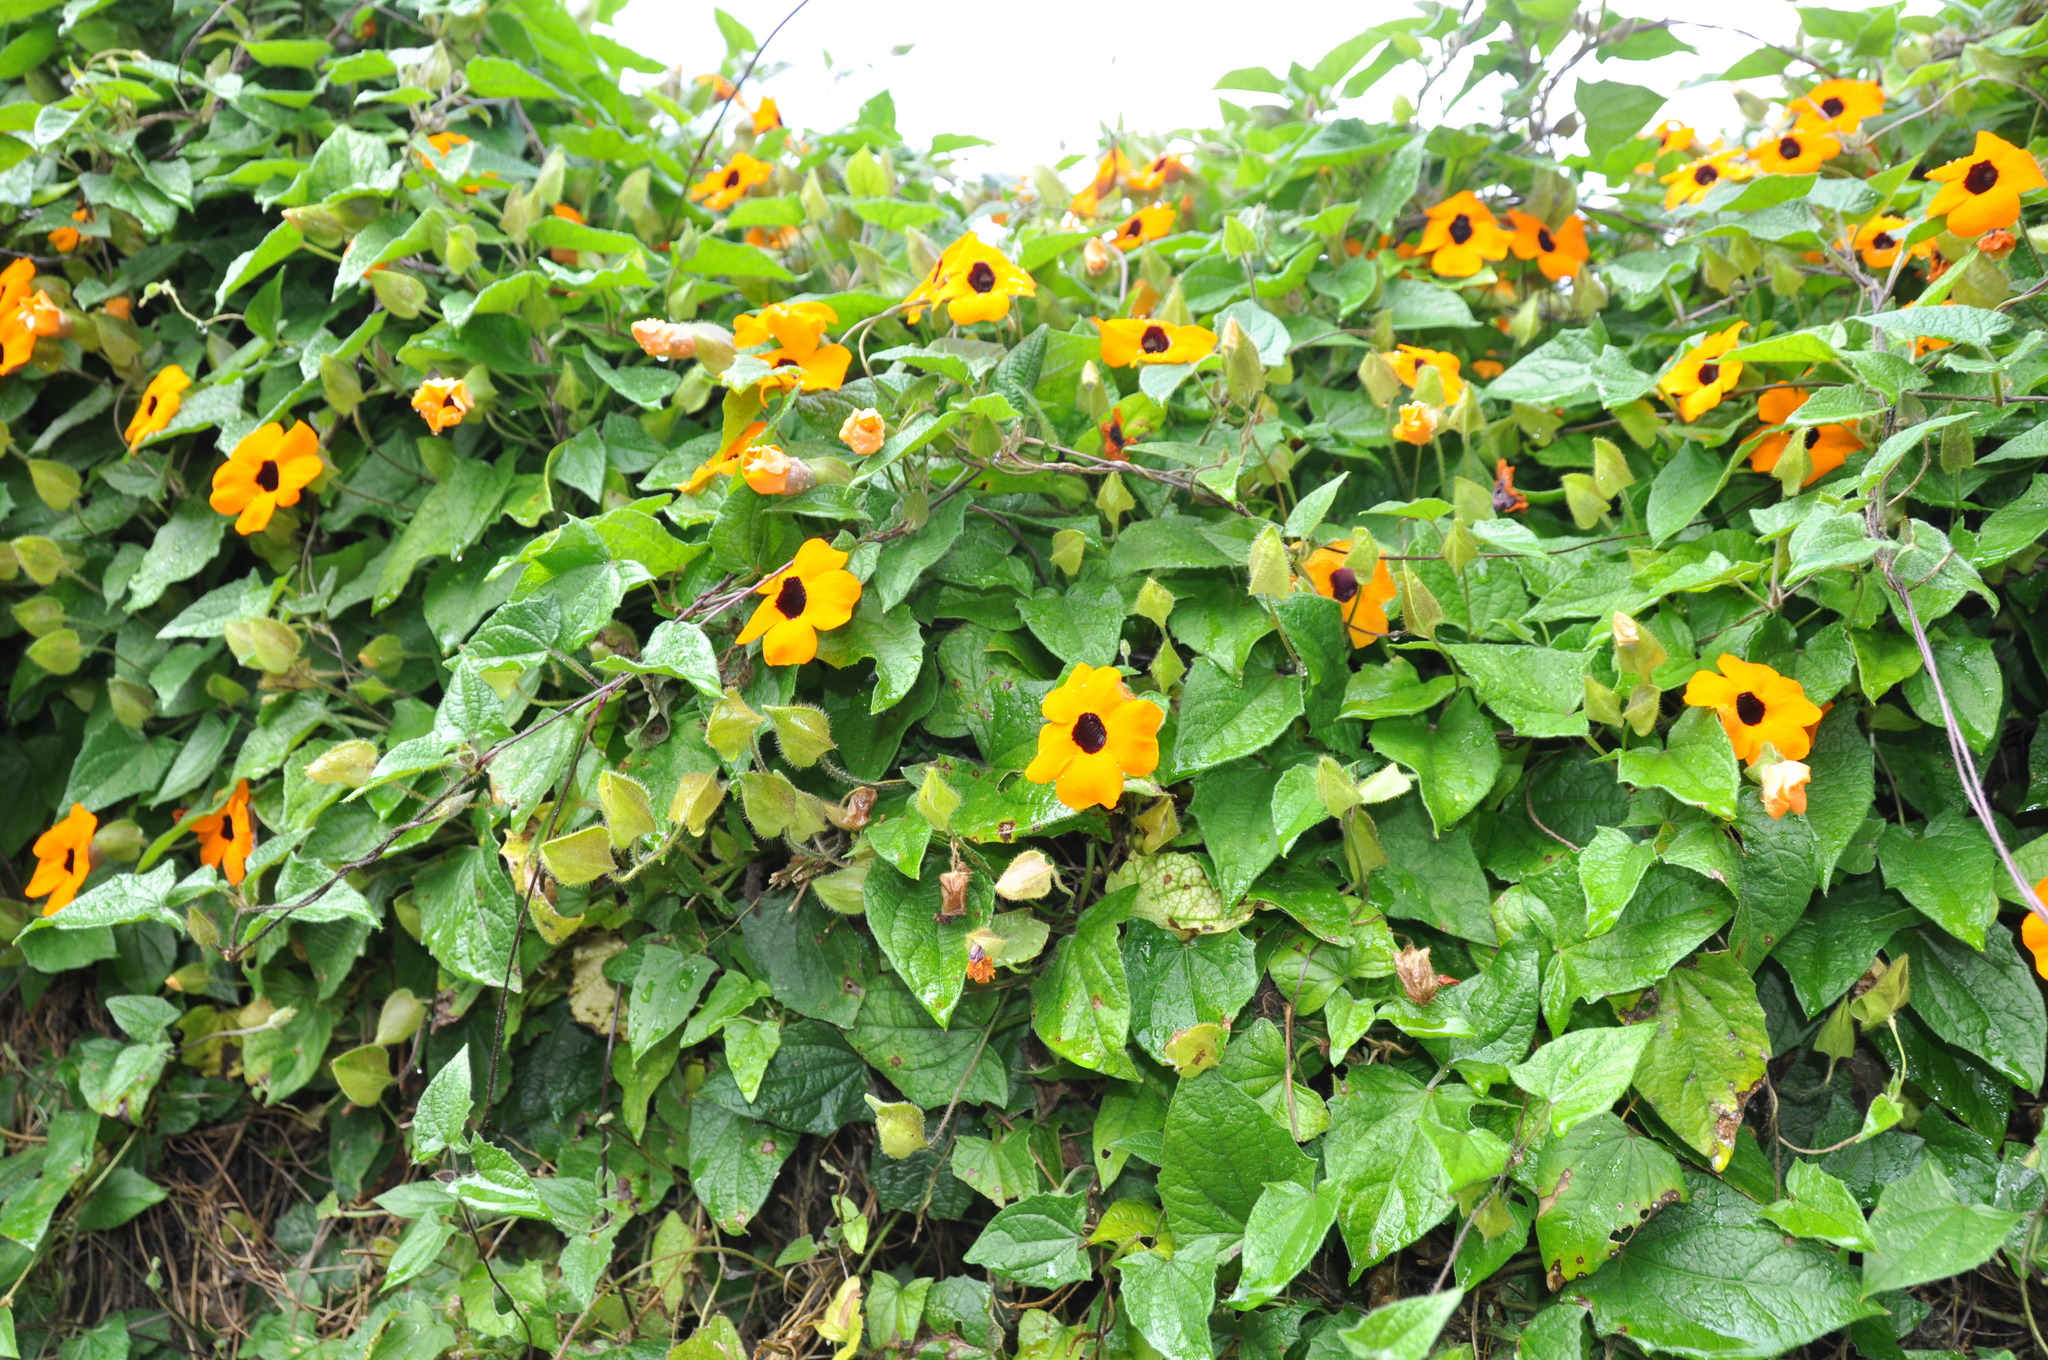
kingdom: Plantae
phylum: Tracheophyta
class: Magnoliopsida
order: Lamiales
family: Acanthaceae
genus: Thunbergia
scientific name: Thunbergia alata
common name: Blackeyed susan vine
